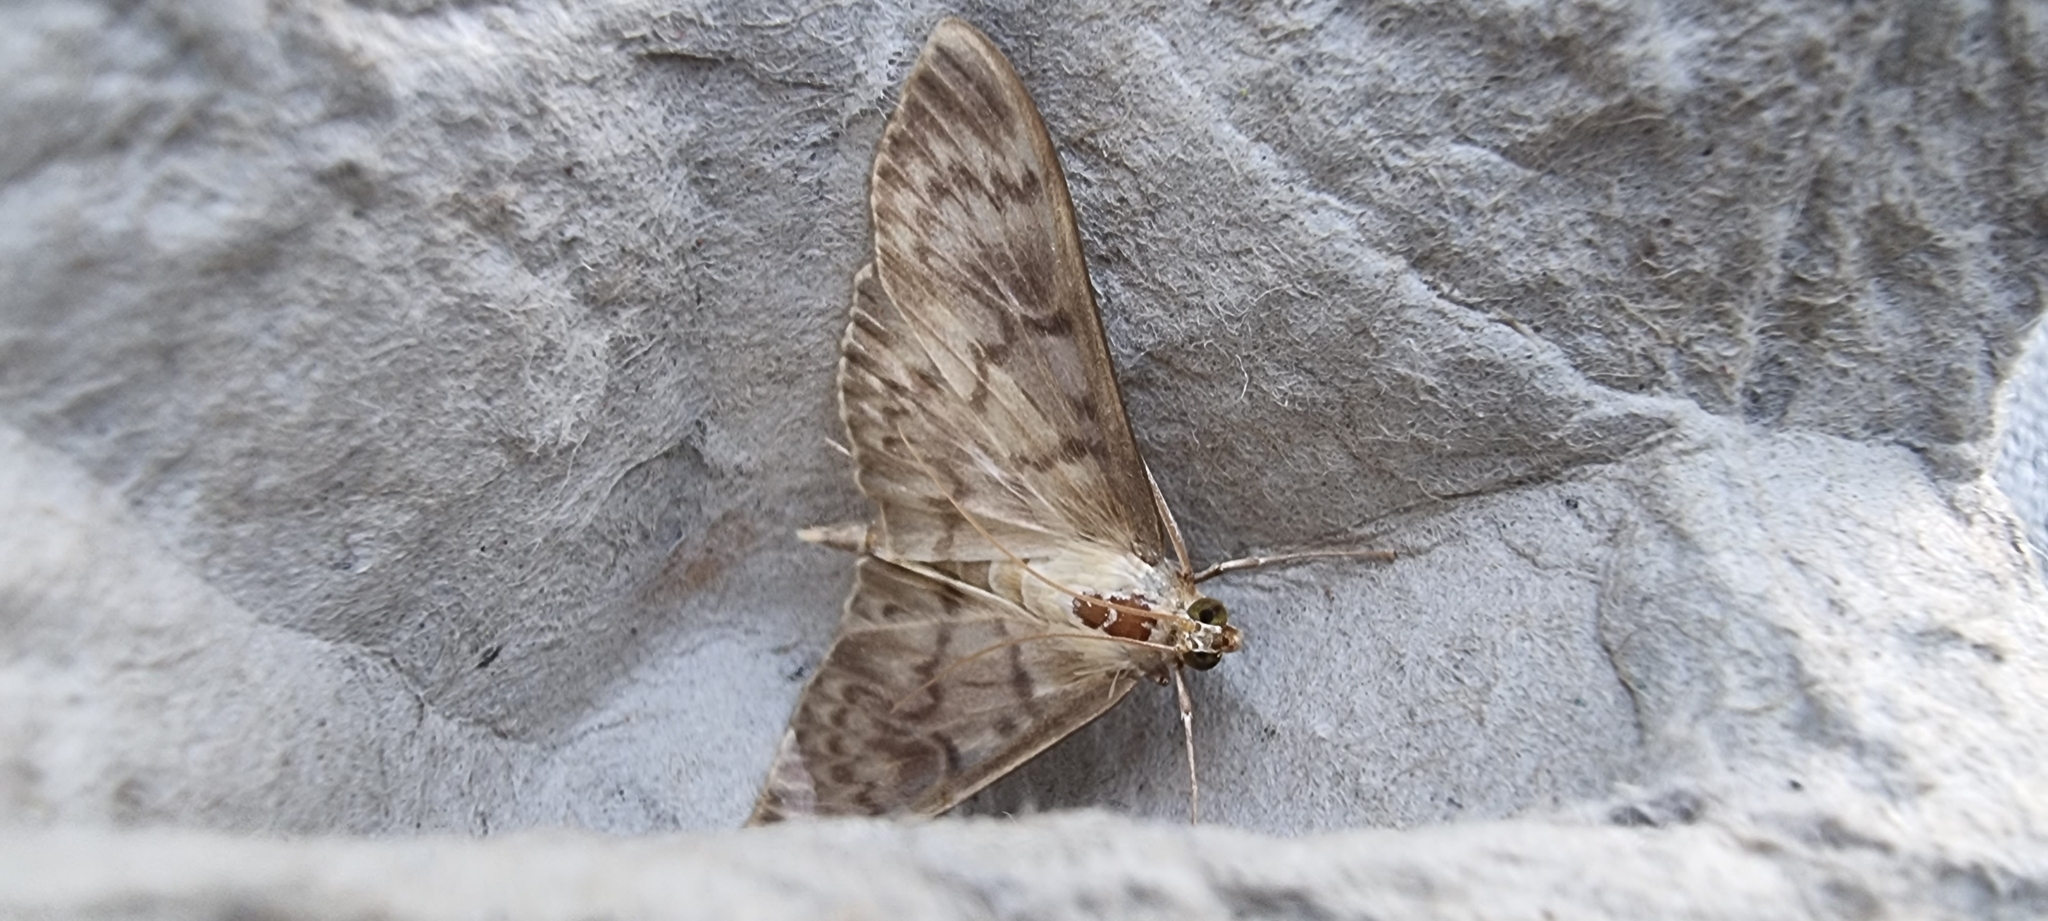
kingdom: Animalia
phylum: Arthropoda
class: Insecta
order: Lepidoptera
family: Crambidae
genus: Patania
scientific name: Patania ruralis
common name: Mother of pearl
